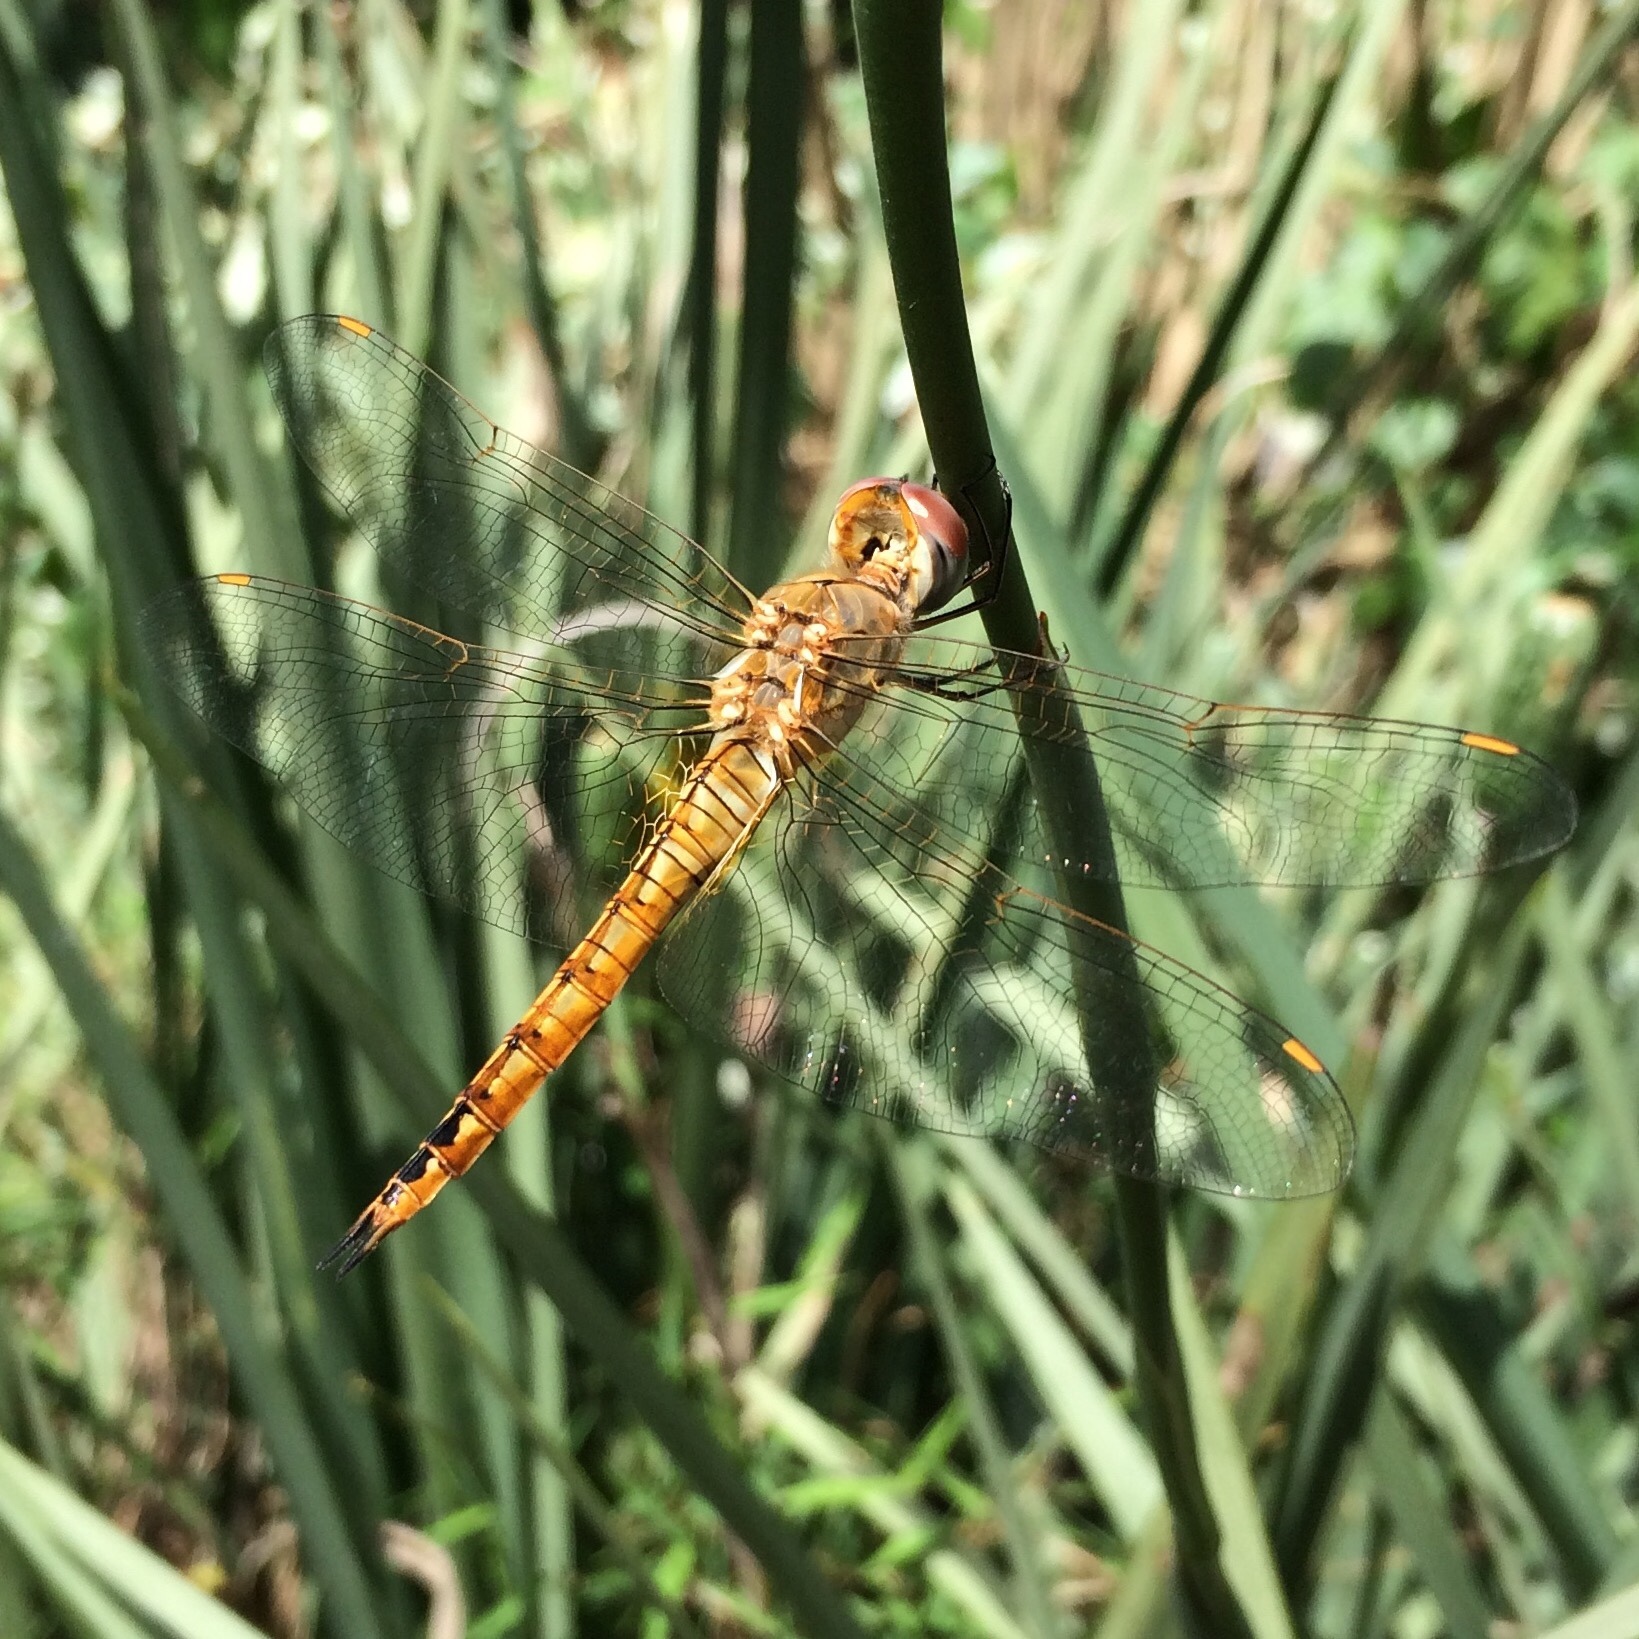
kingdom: Animalia
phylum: Arthropoda
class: Insecta
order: Odonata
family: Libellulidae
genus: Pantala
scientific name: Pantala flavescens
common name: Wandering glider
